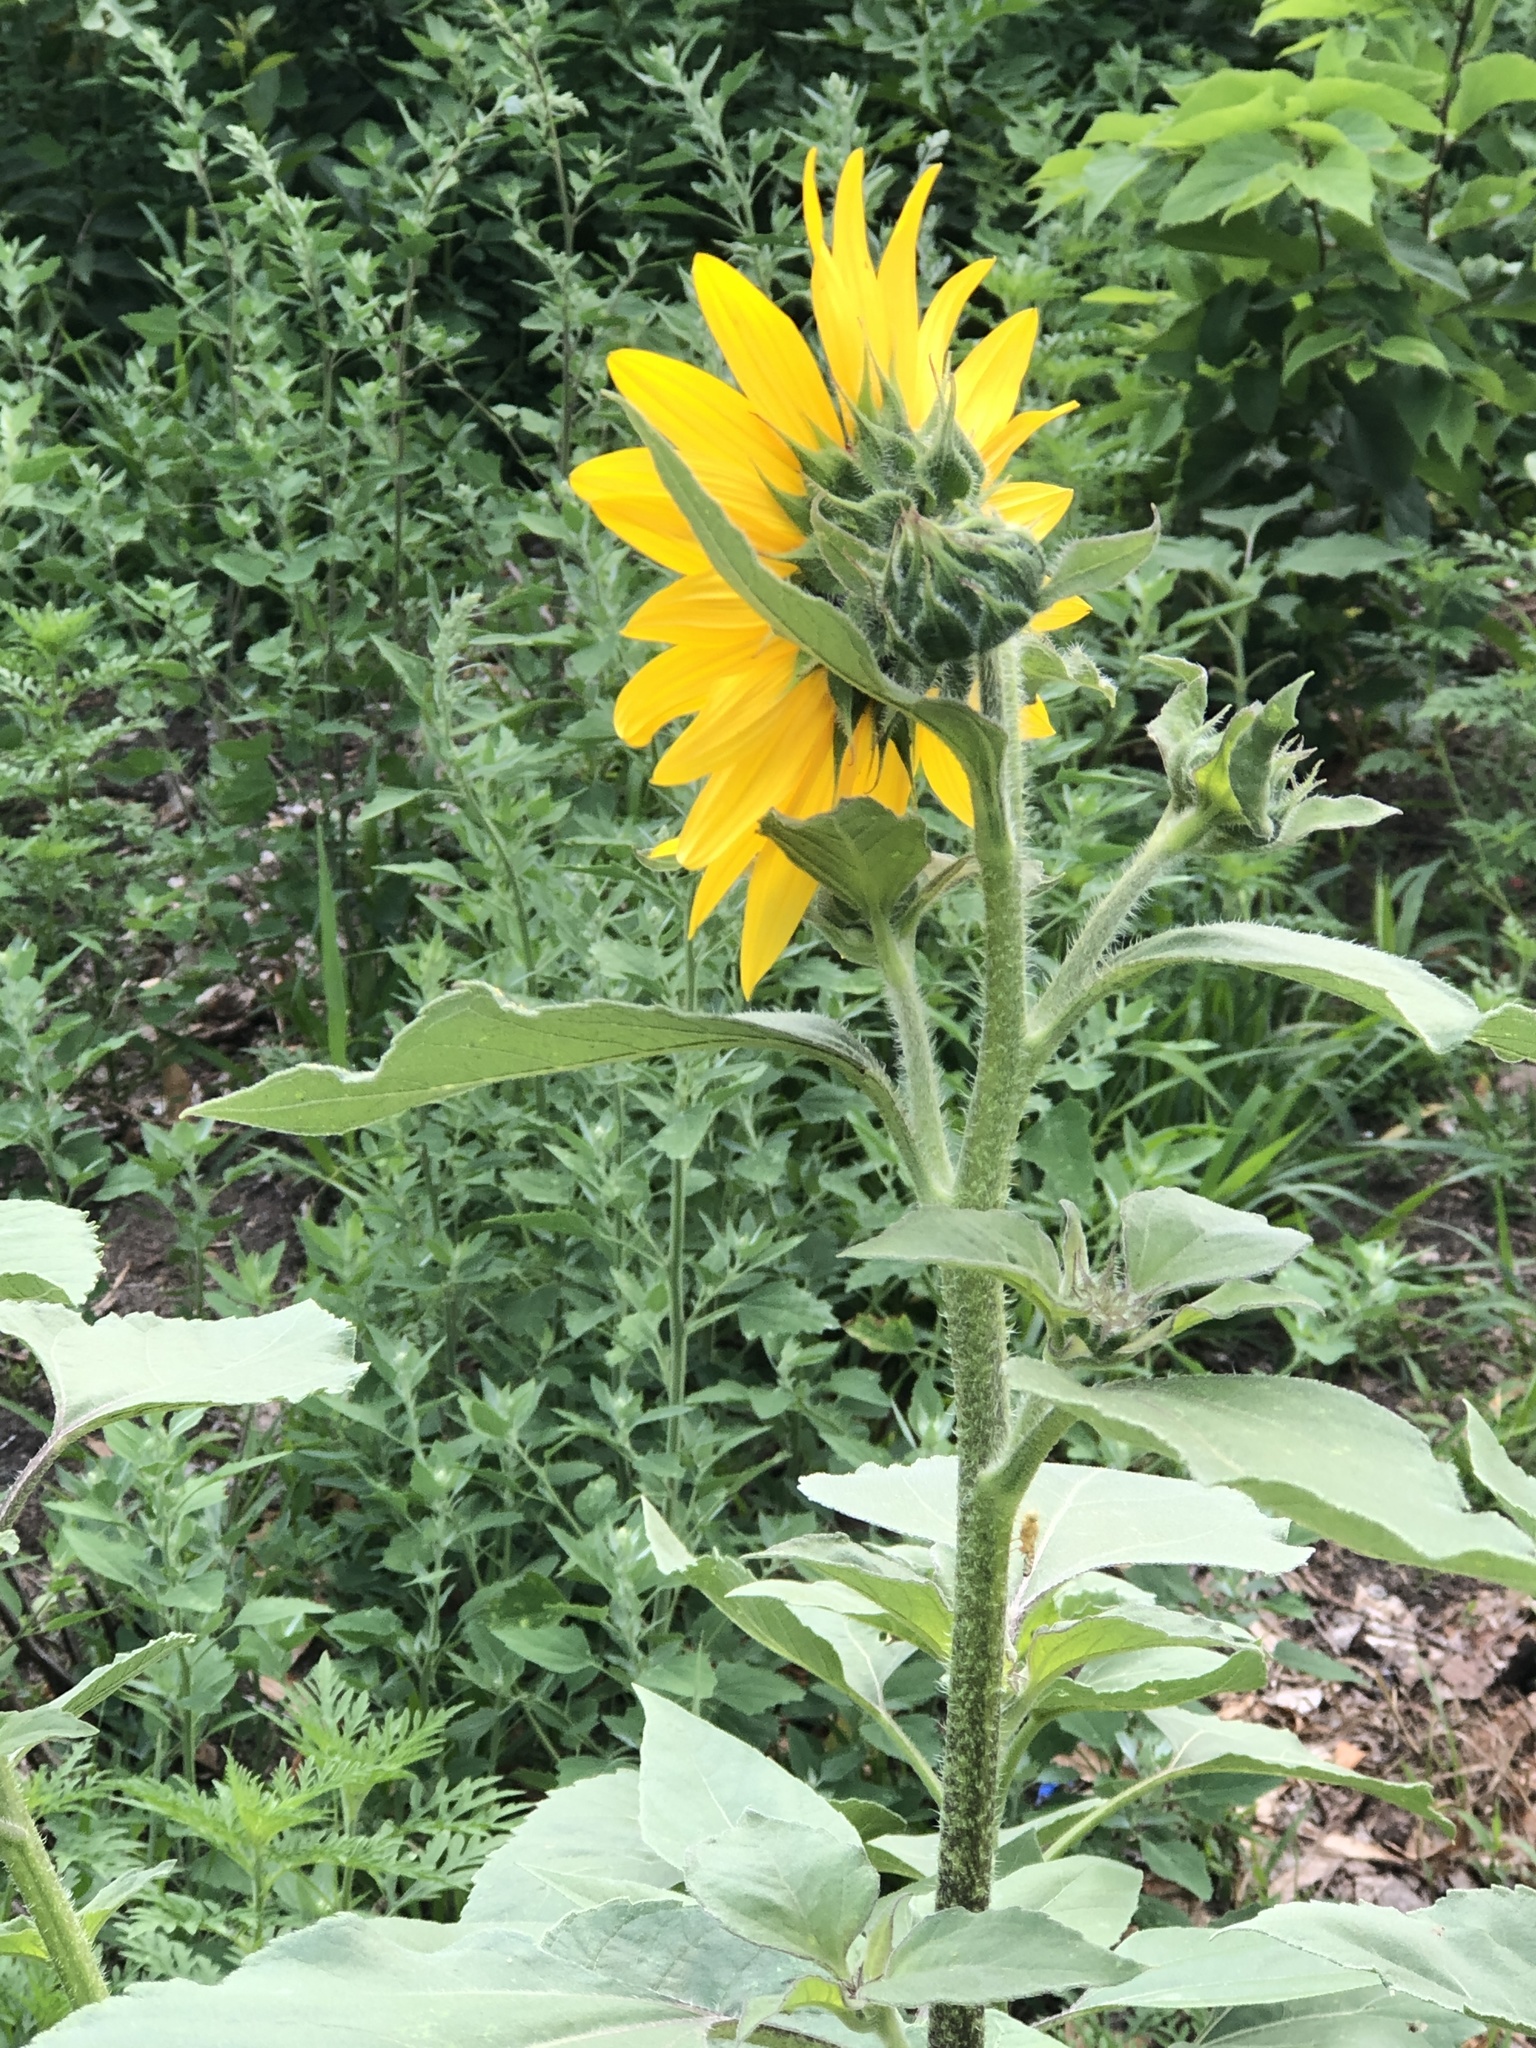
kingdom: Plantae
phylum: Tracheophyta
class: Magnoliopsida
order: Asterales
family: Asteraceae
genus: Helianthus
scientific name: Helianthus annuus
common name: Sunflower
